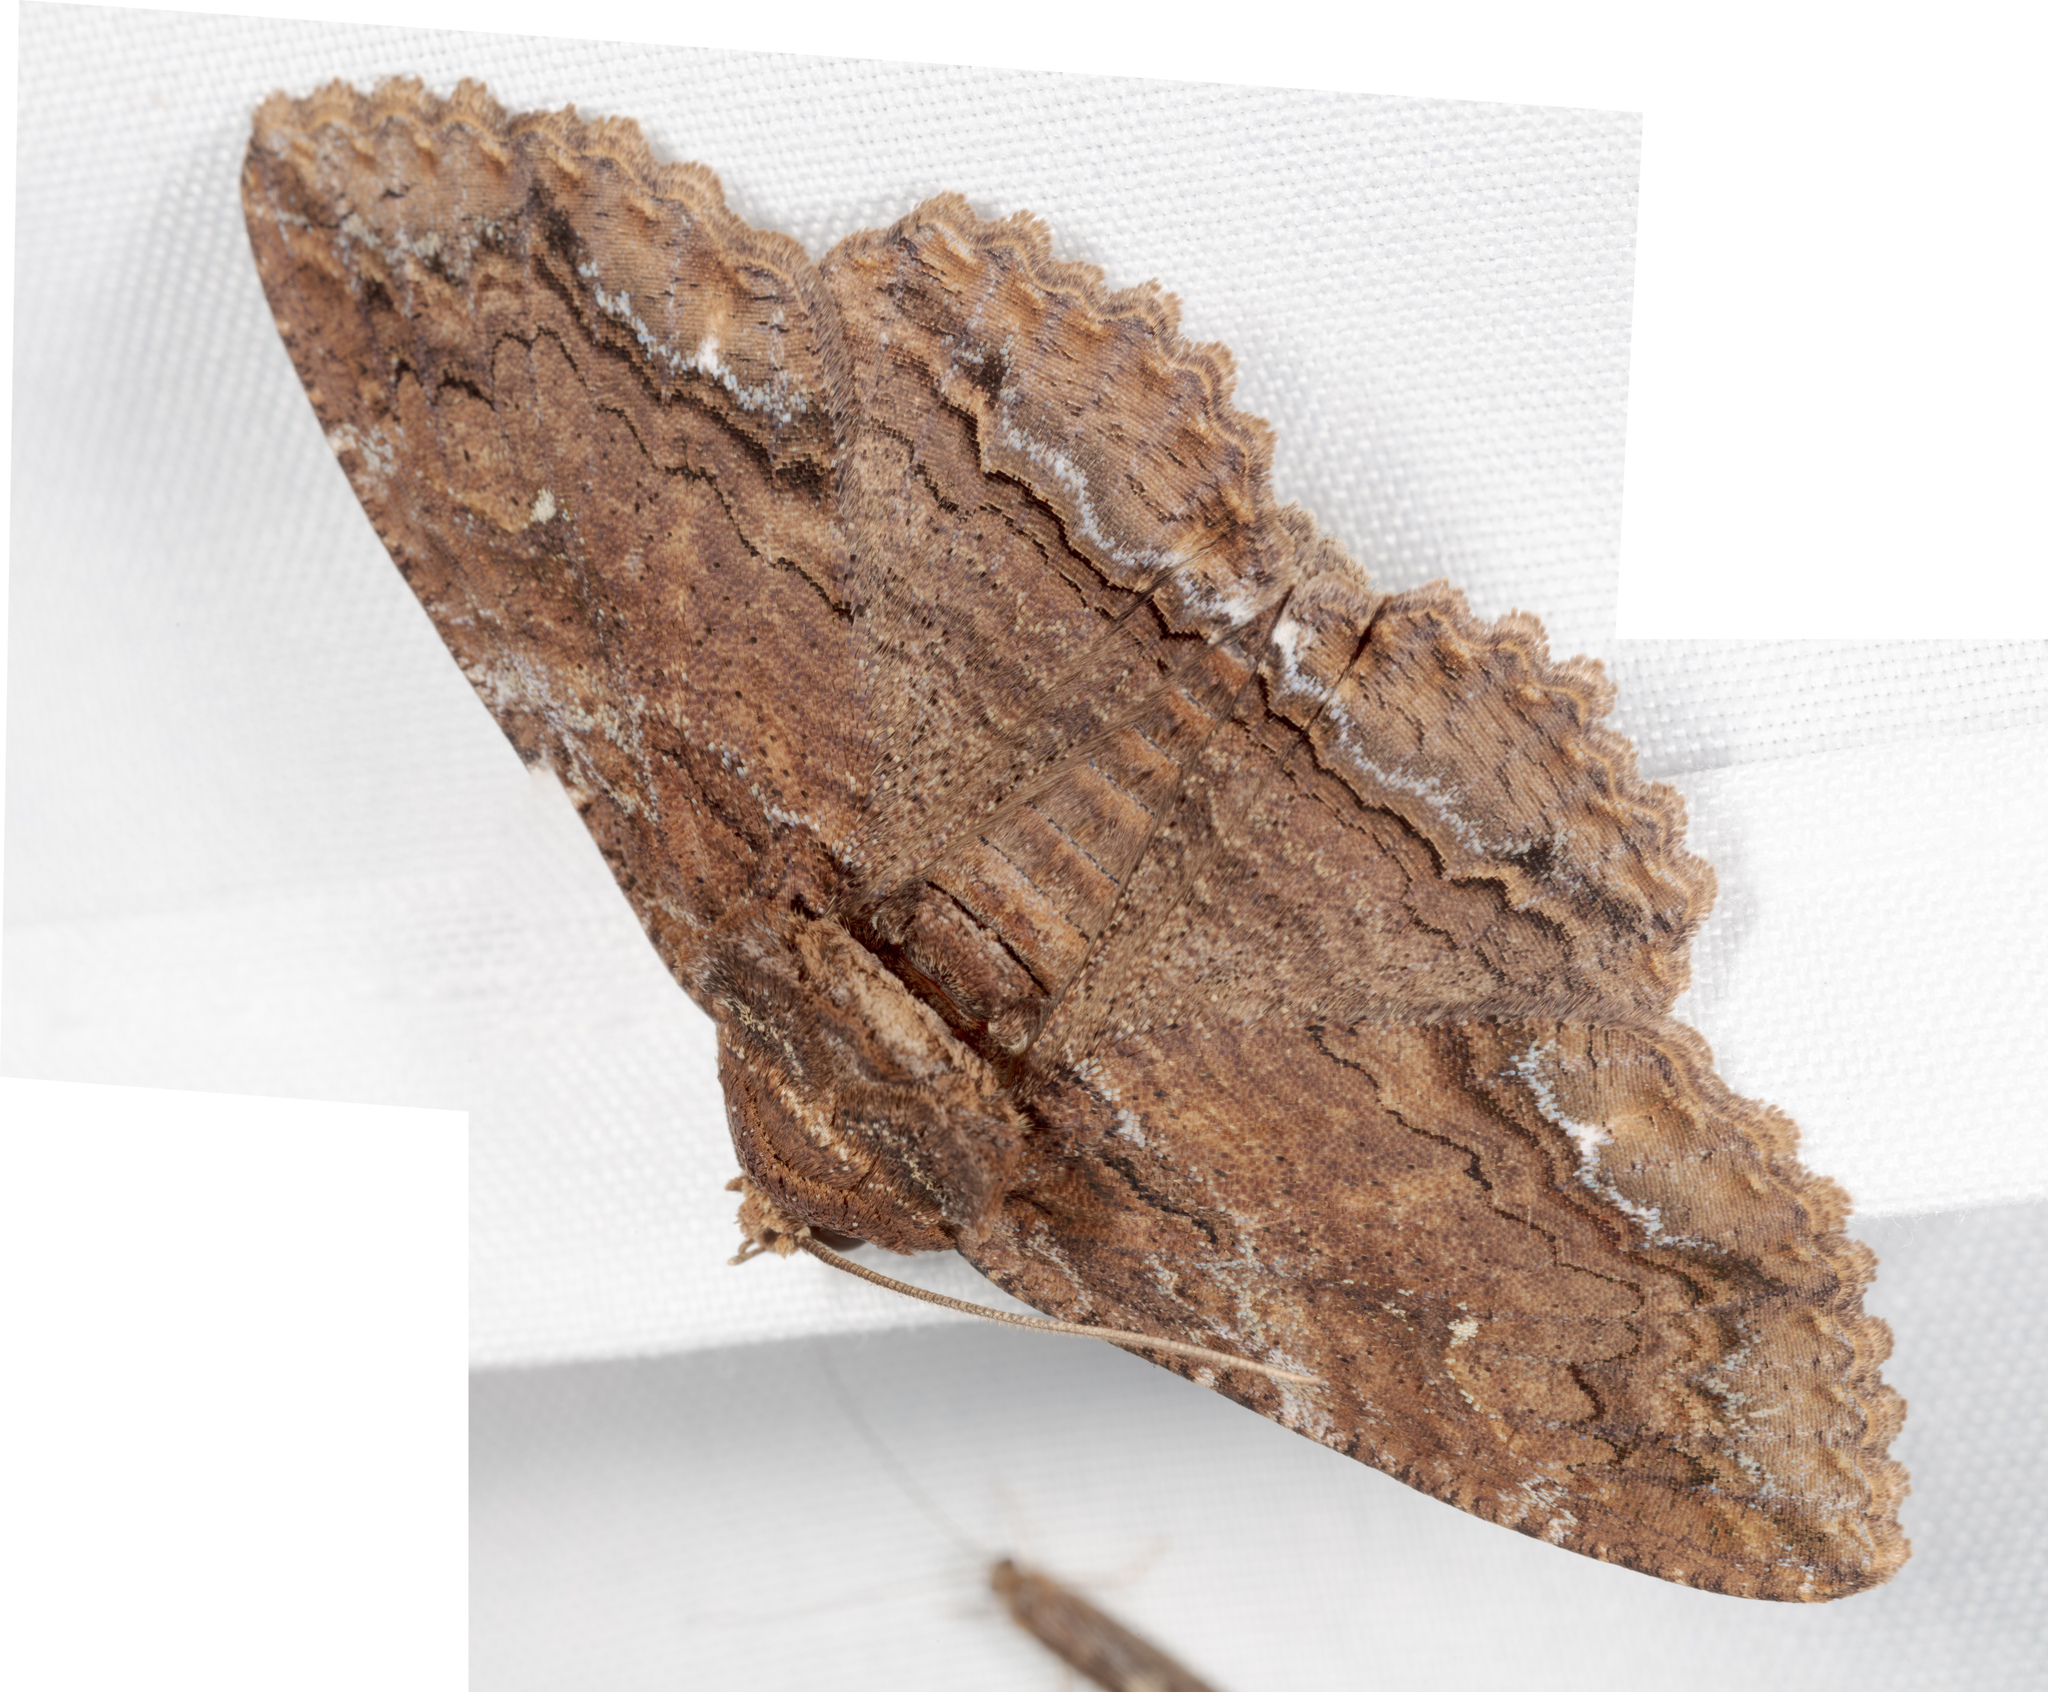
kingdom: Animalia
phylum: Arthropoda
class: Insecta
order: Lepidoptera
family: Erebidae
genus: Zale
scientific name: Zale lunata
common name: Lunate zale moth
